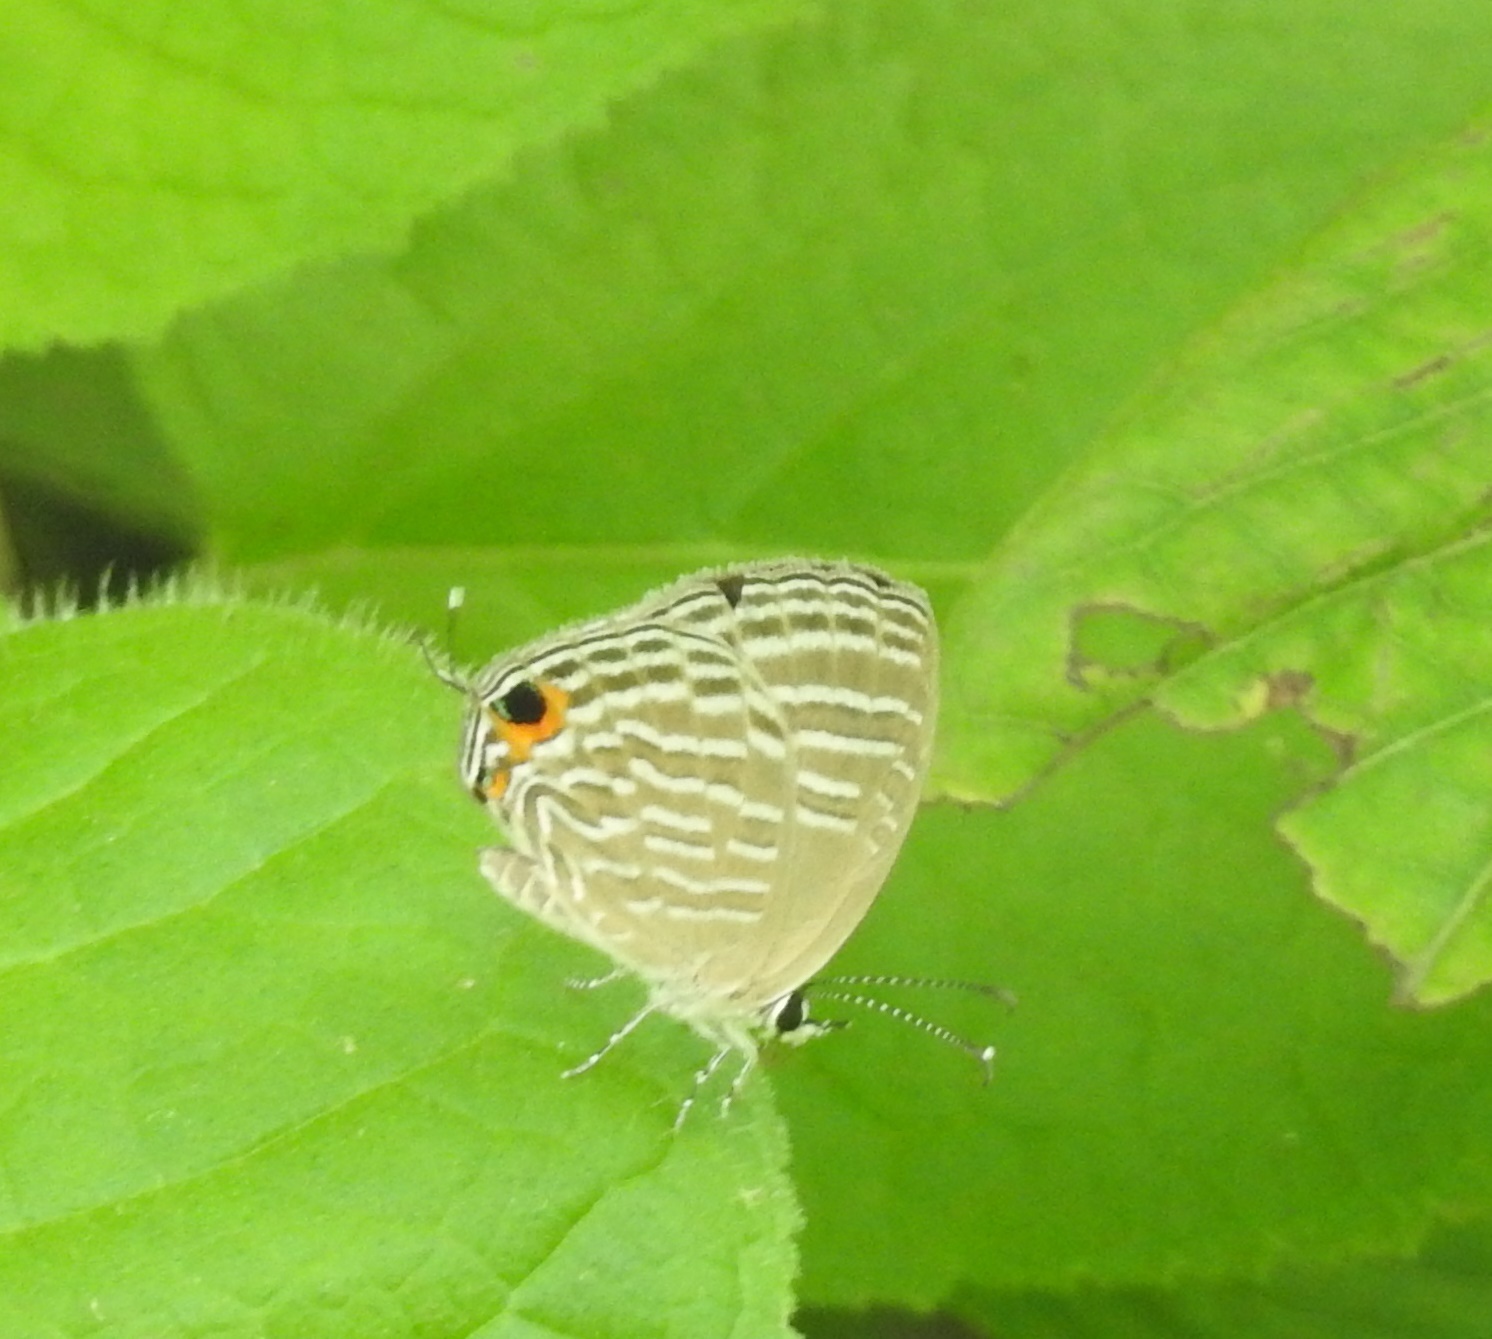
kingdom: Animalia
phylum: Arthropoda
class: Insecta
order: Lepidoptera
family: Lycaenidae
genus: Jamides
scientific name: Jamides celeno
